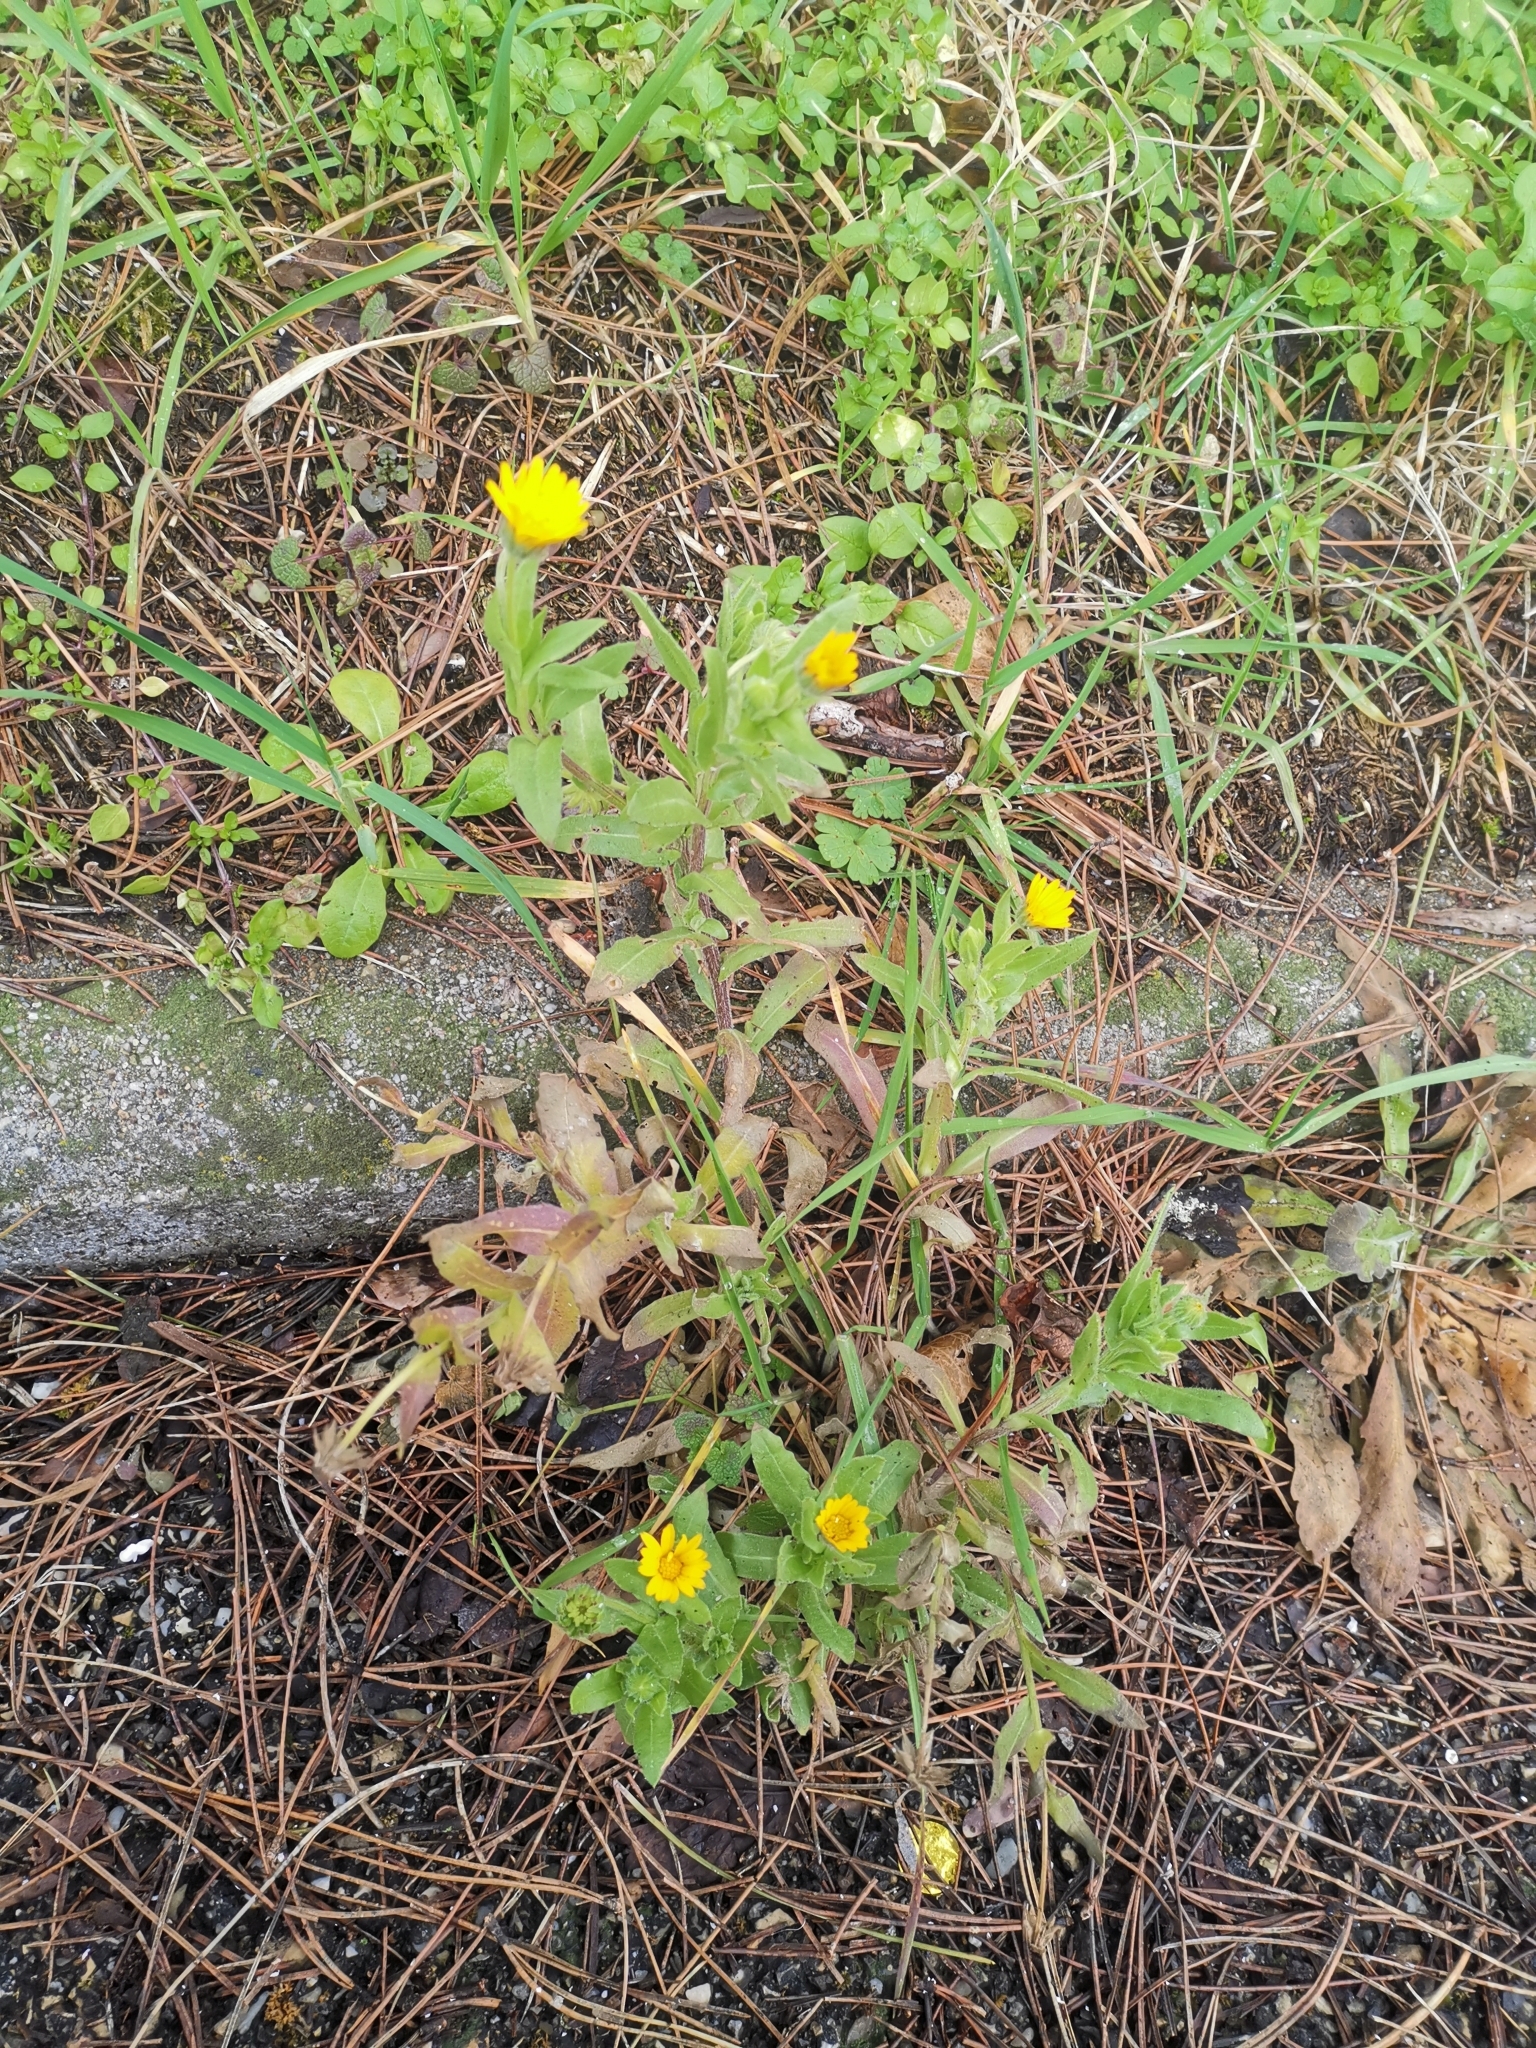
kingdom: Plantae
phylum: Tracheophyta
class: Magnoliopsida
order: Asterales
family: Asteraceae
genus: Calendula
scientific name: Calendula arvensis
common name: Field marigold
